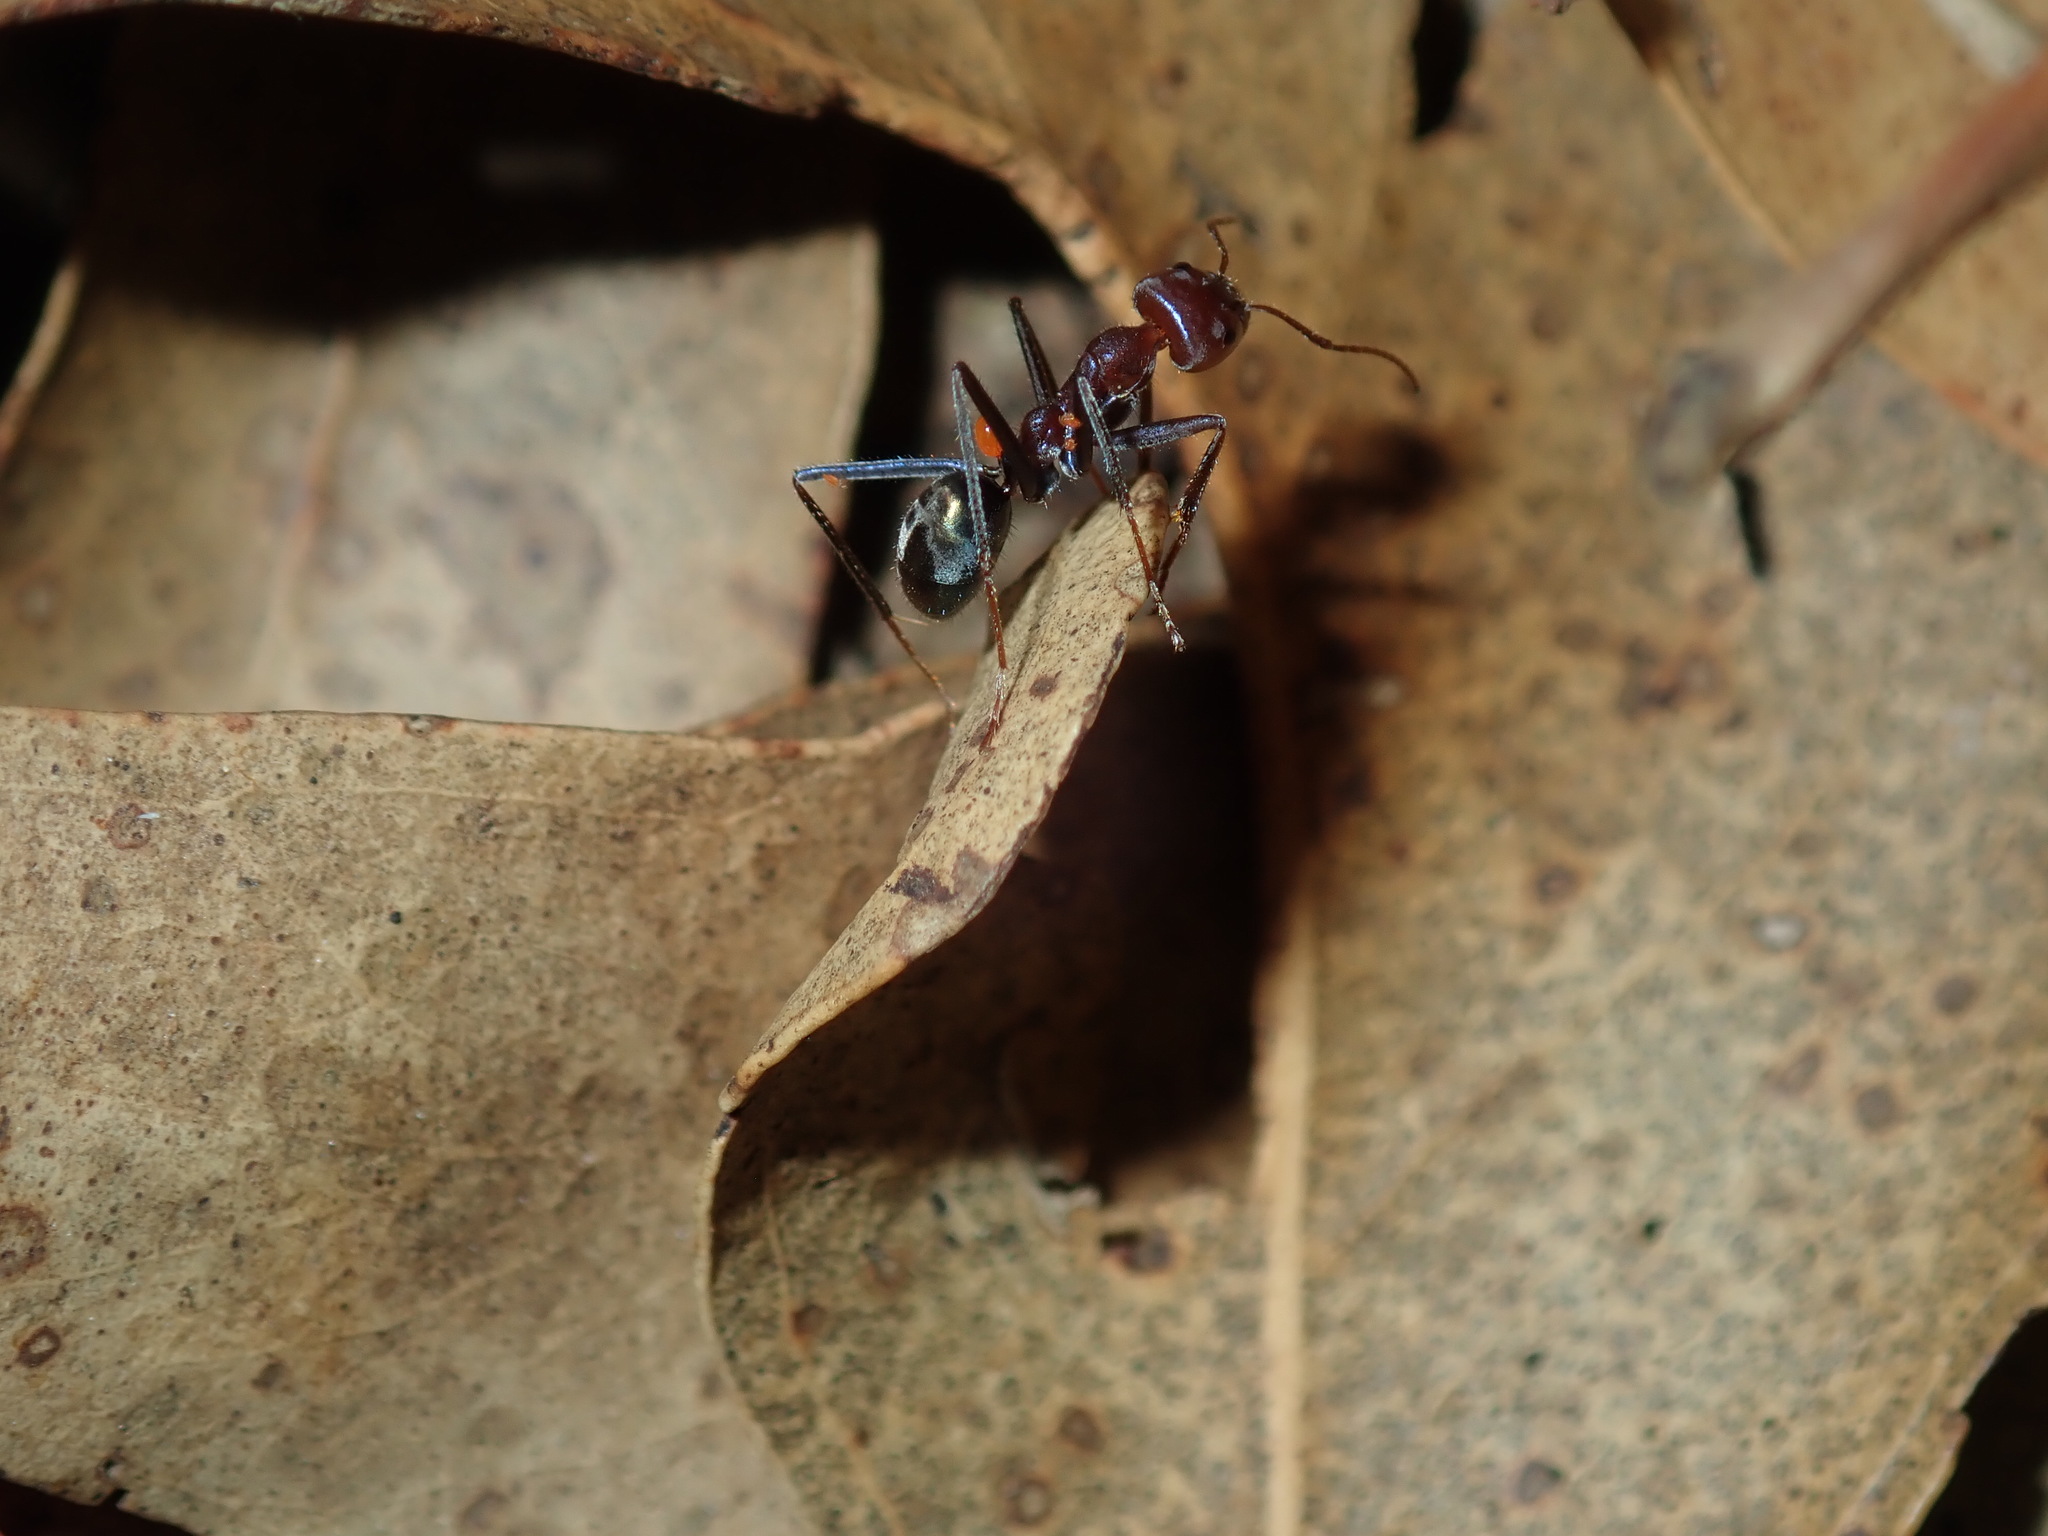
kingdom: Animalia
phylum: Arthropoda
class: Insecta
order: Hymenoptera
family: Formicidae
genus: Iridomyrmex
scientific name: Iridomyrmex purpureus
